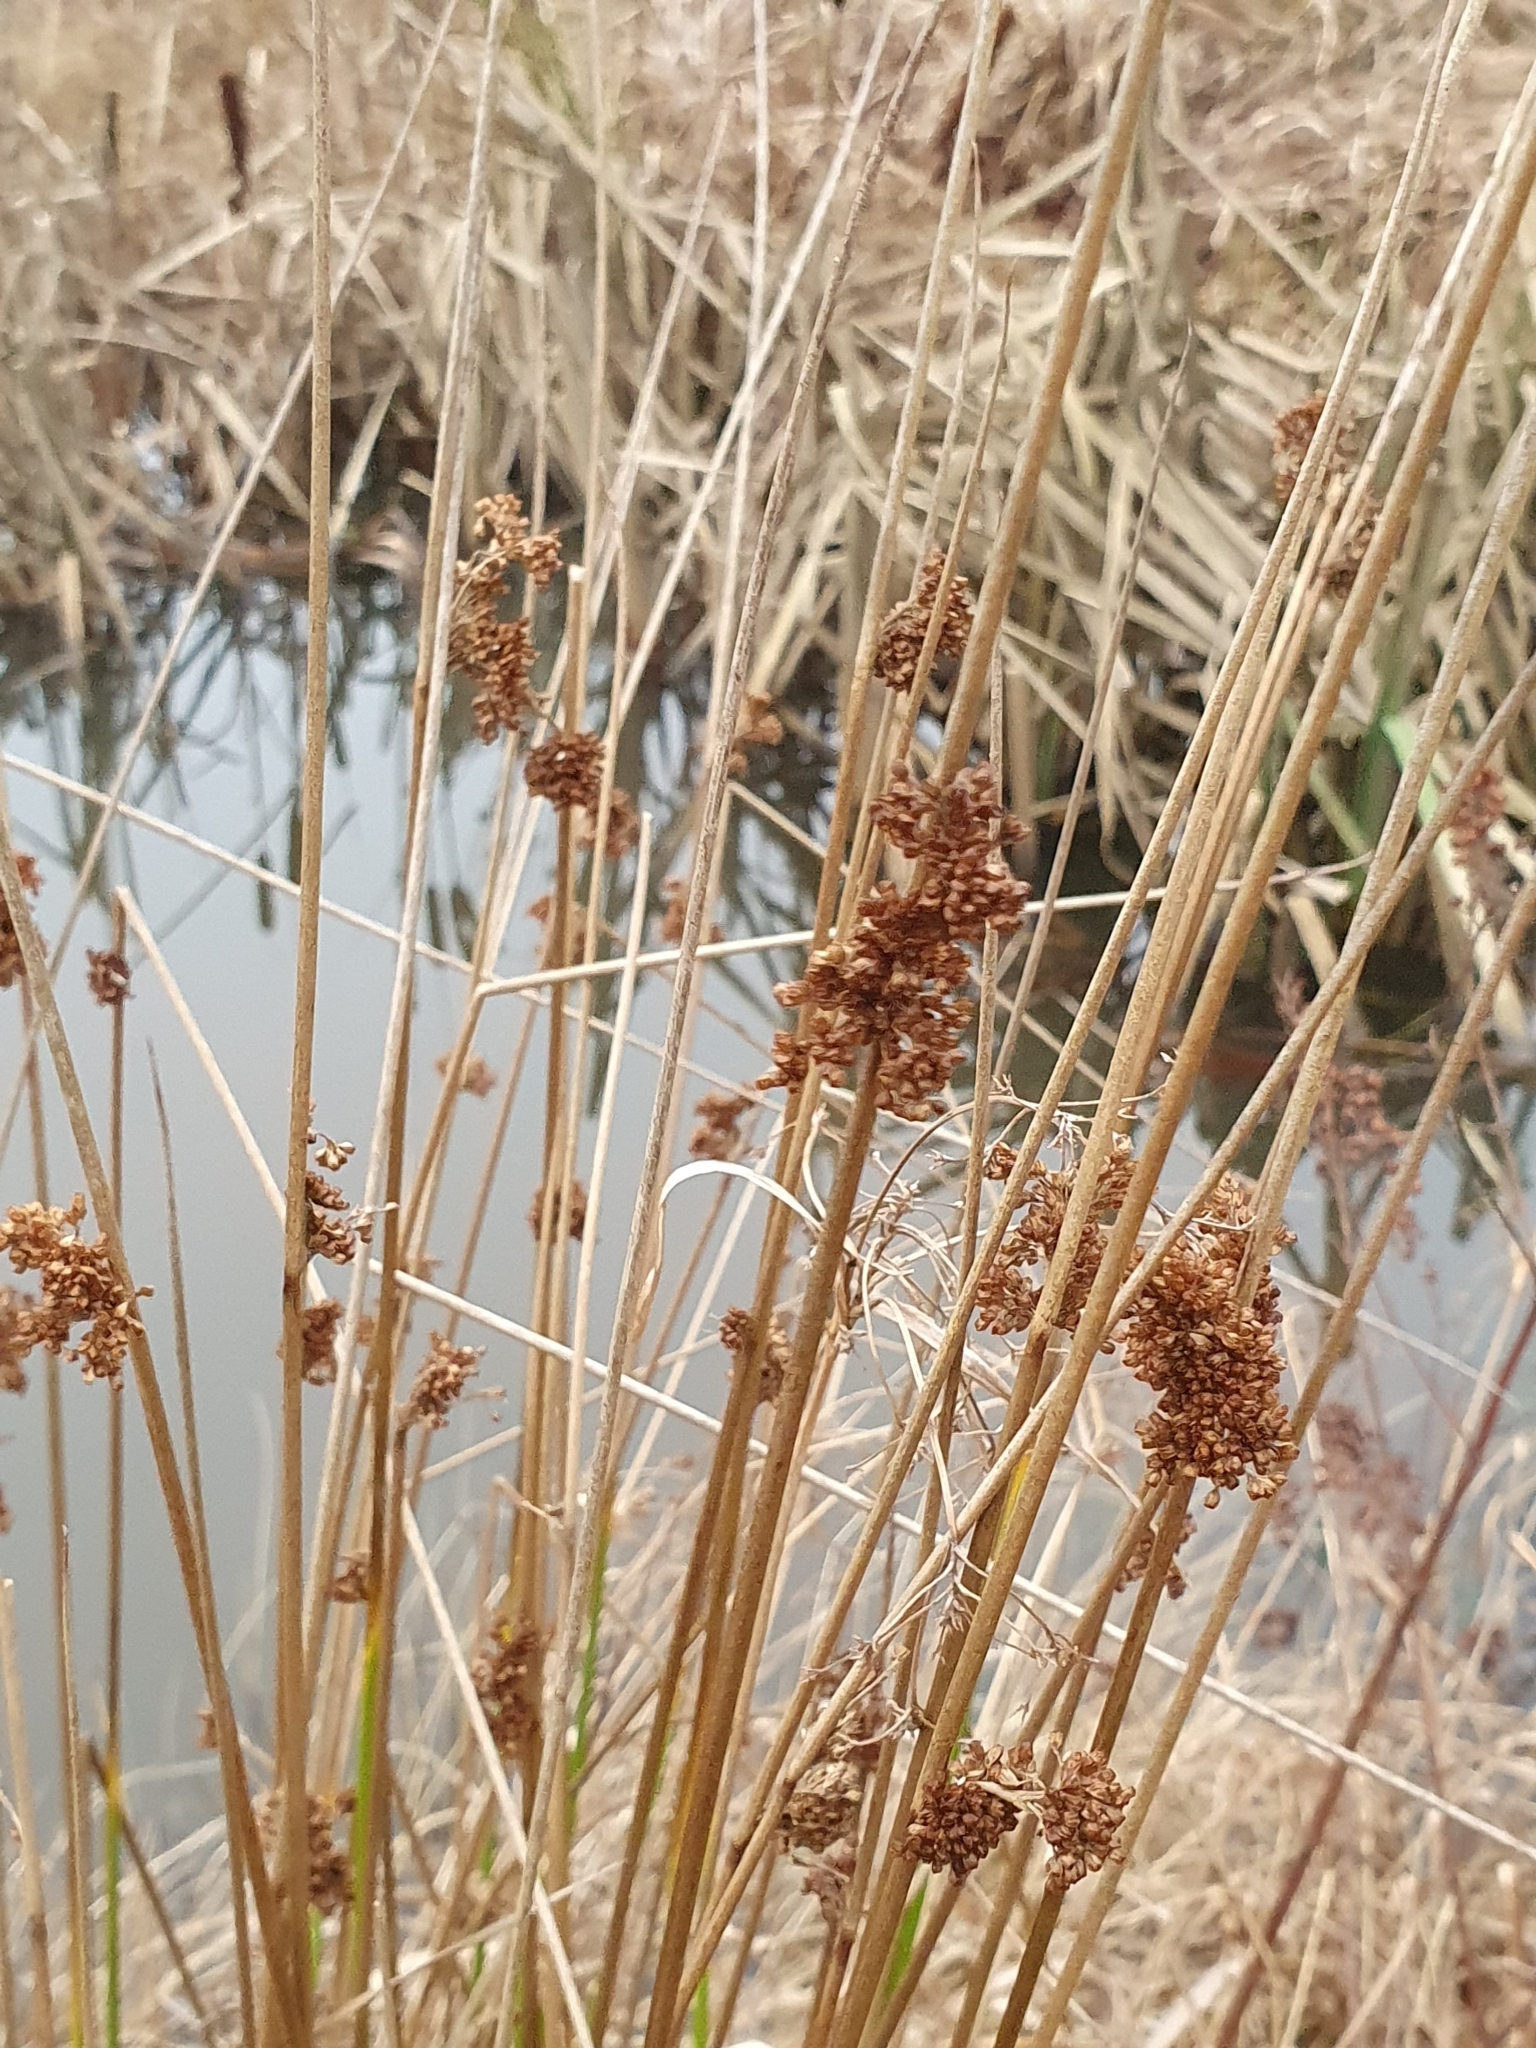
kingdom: Plantae
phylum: Tracheophyta
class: Liliopsida
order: Poales
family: Juncaceae
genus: Juncus
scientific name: Juncus effusus
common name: Soft rush
